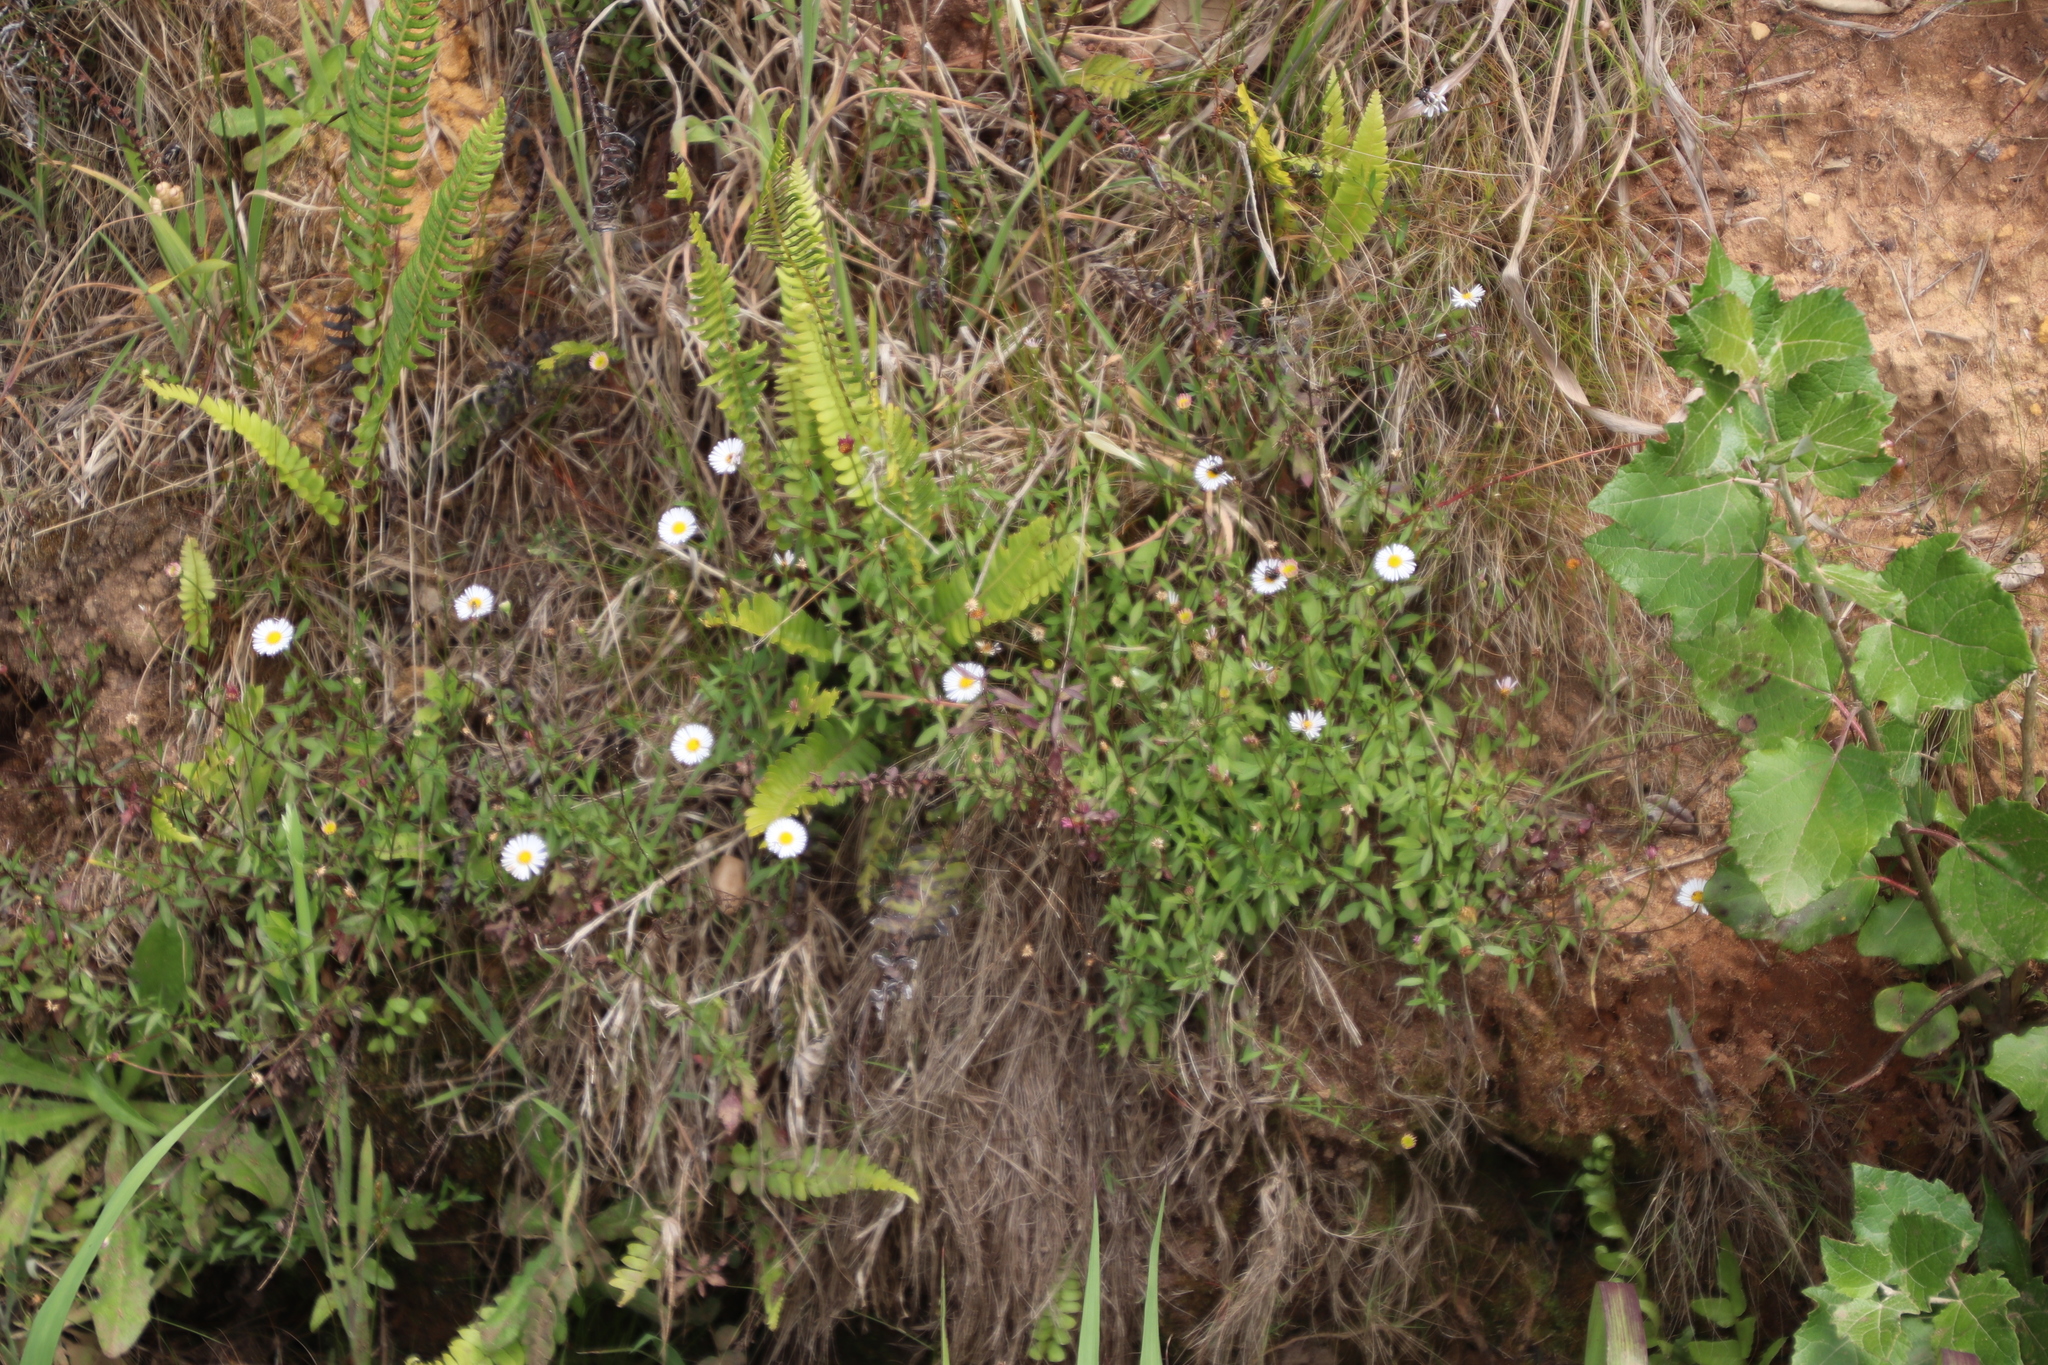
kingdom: Plantae
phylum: Tracheophyta
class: Magnoliopsida
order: Asterales
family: Asteraceae
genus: Erigeron
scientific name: Erigeron karvinskianus
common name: Mexican fleabane
